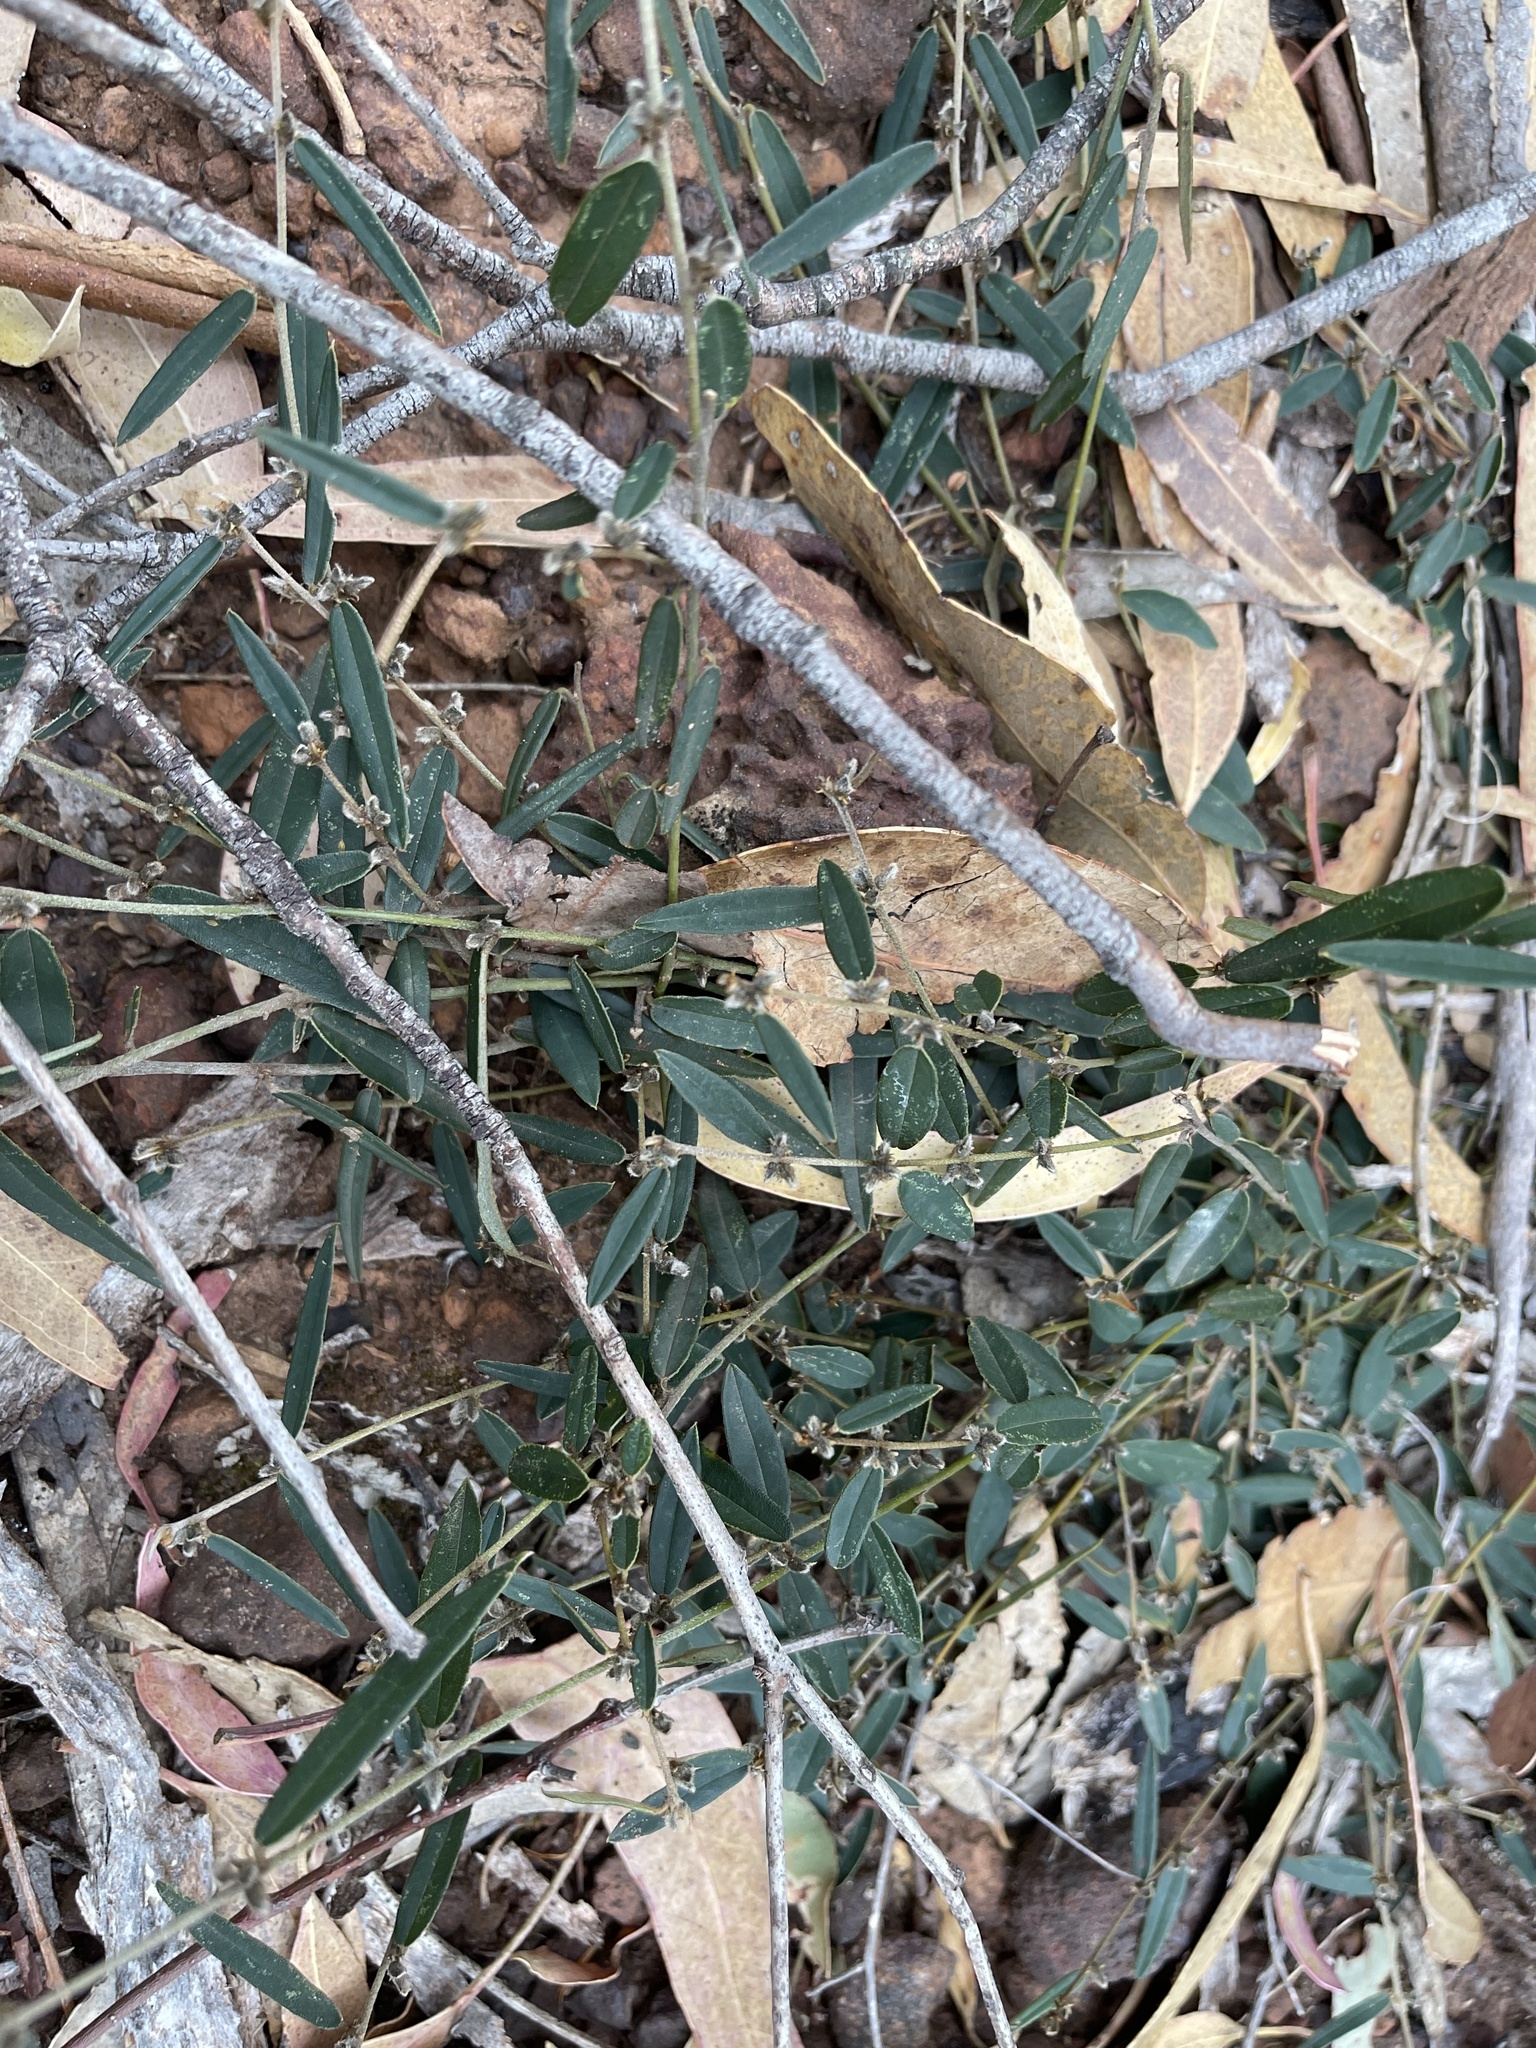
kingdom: Plantae
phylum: Tracheophyta
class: Magnoliopsida
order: Fabales
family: Fabaceae
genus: Hovea
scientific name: Hovea heterophylla
